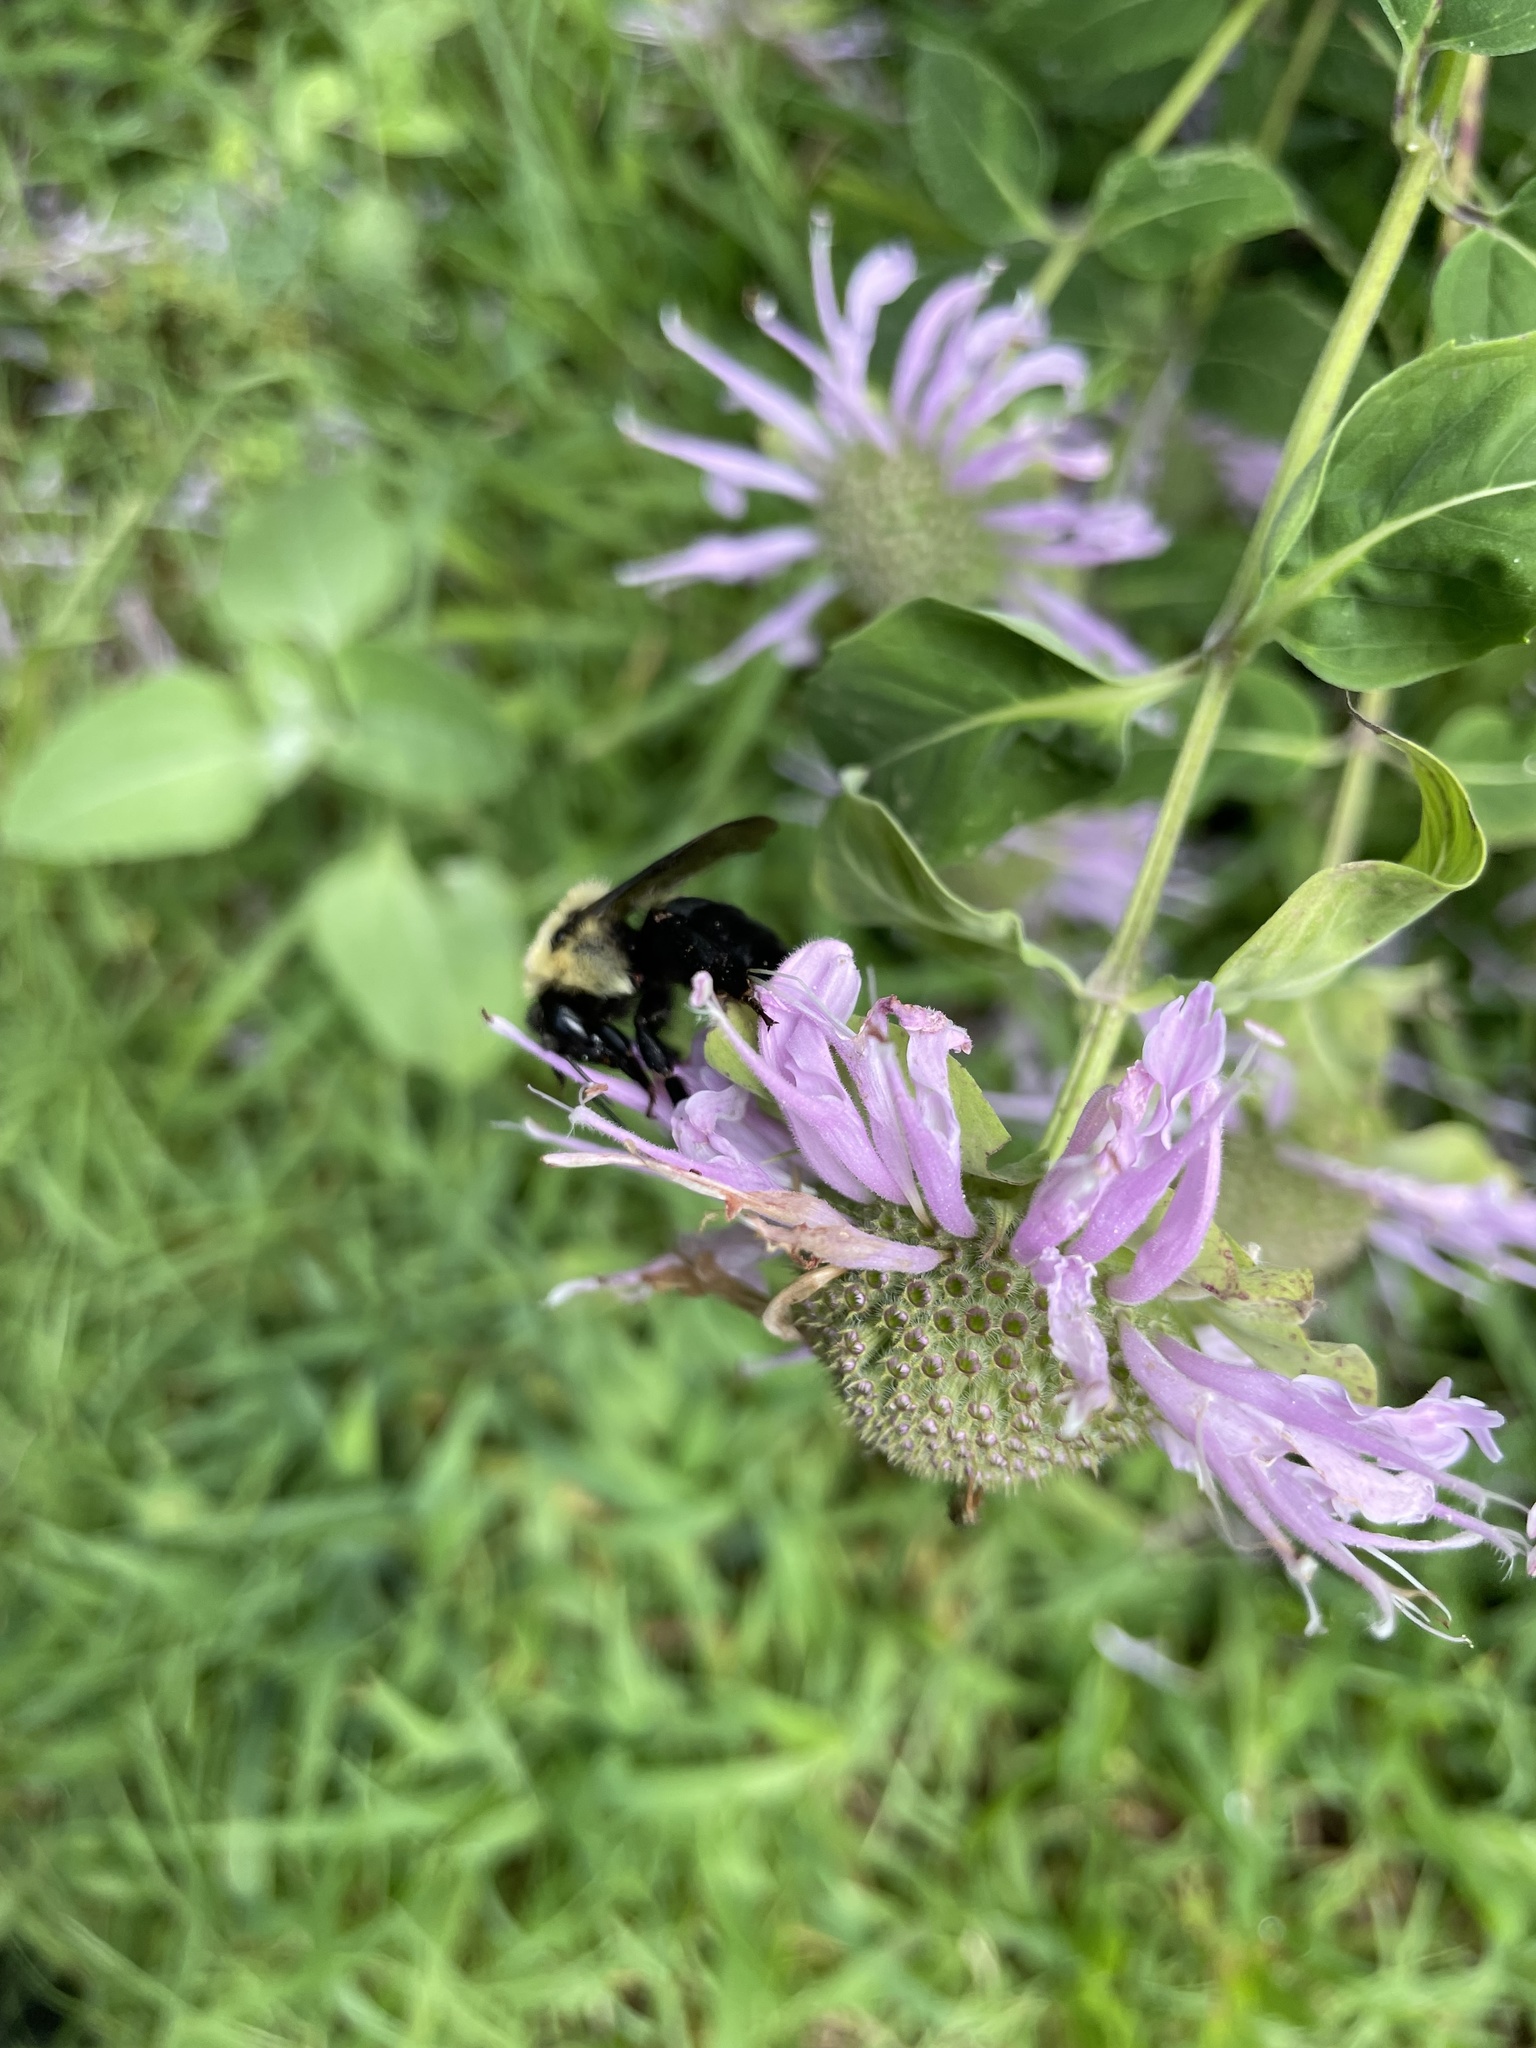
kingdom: Animalia
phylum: Arthropoda
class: Insecta
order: Hymenoptera
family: Apidae
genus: Bombus
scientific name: Bombus
